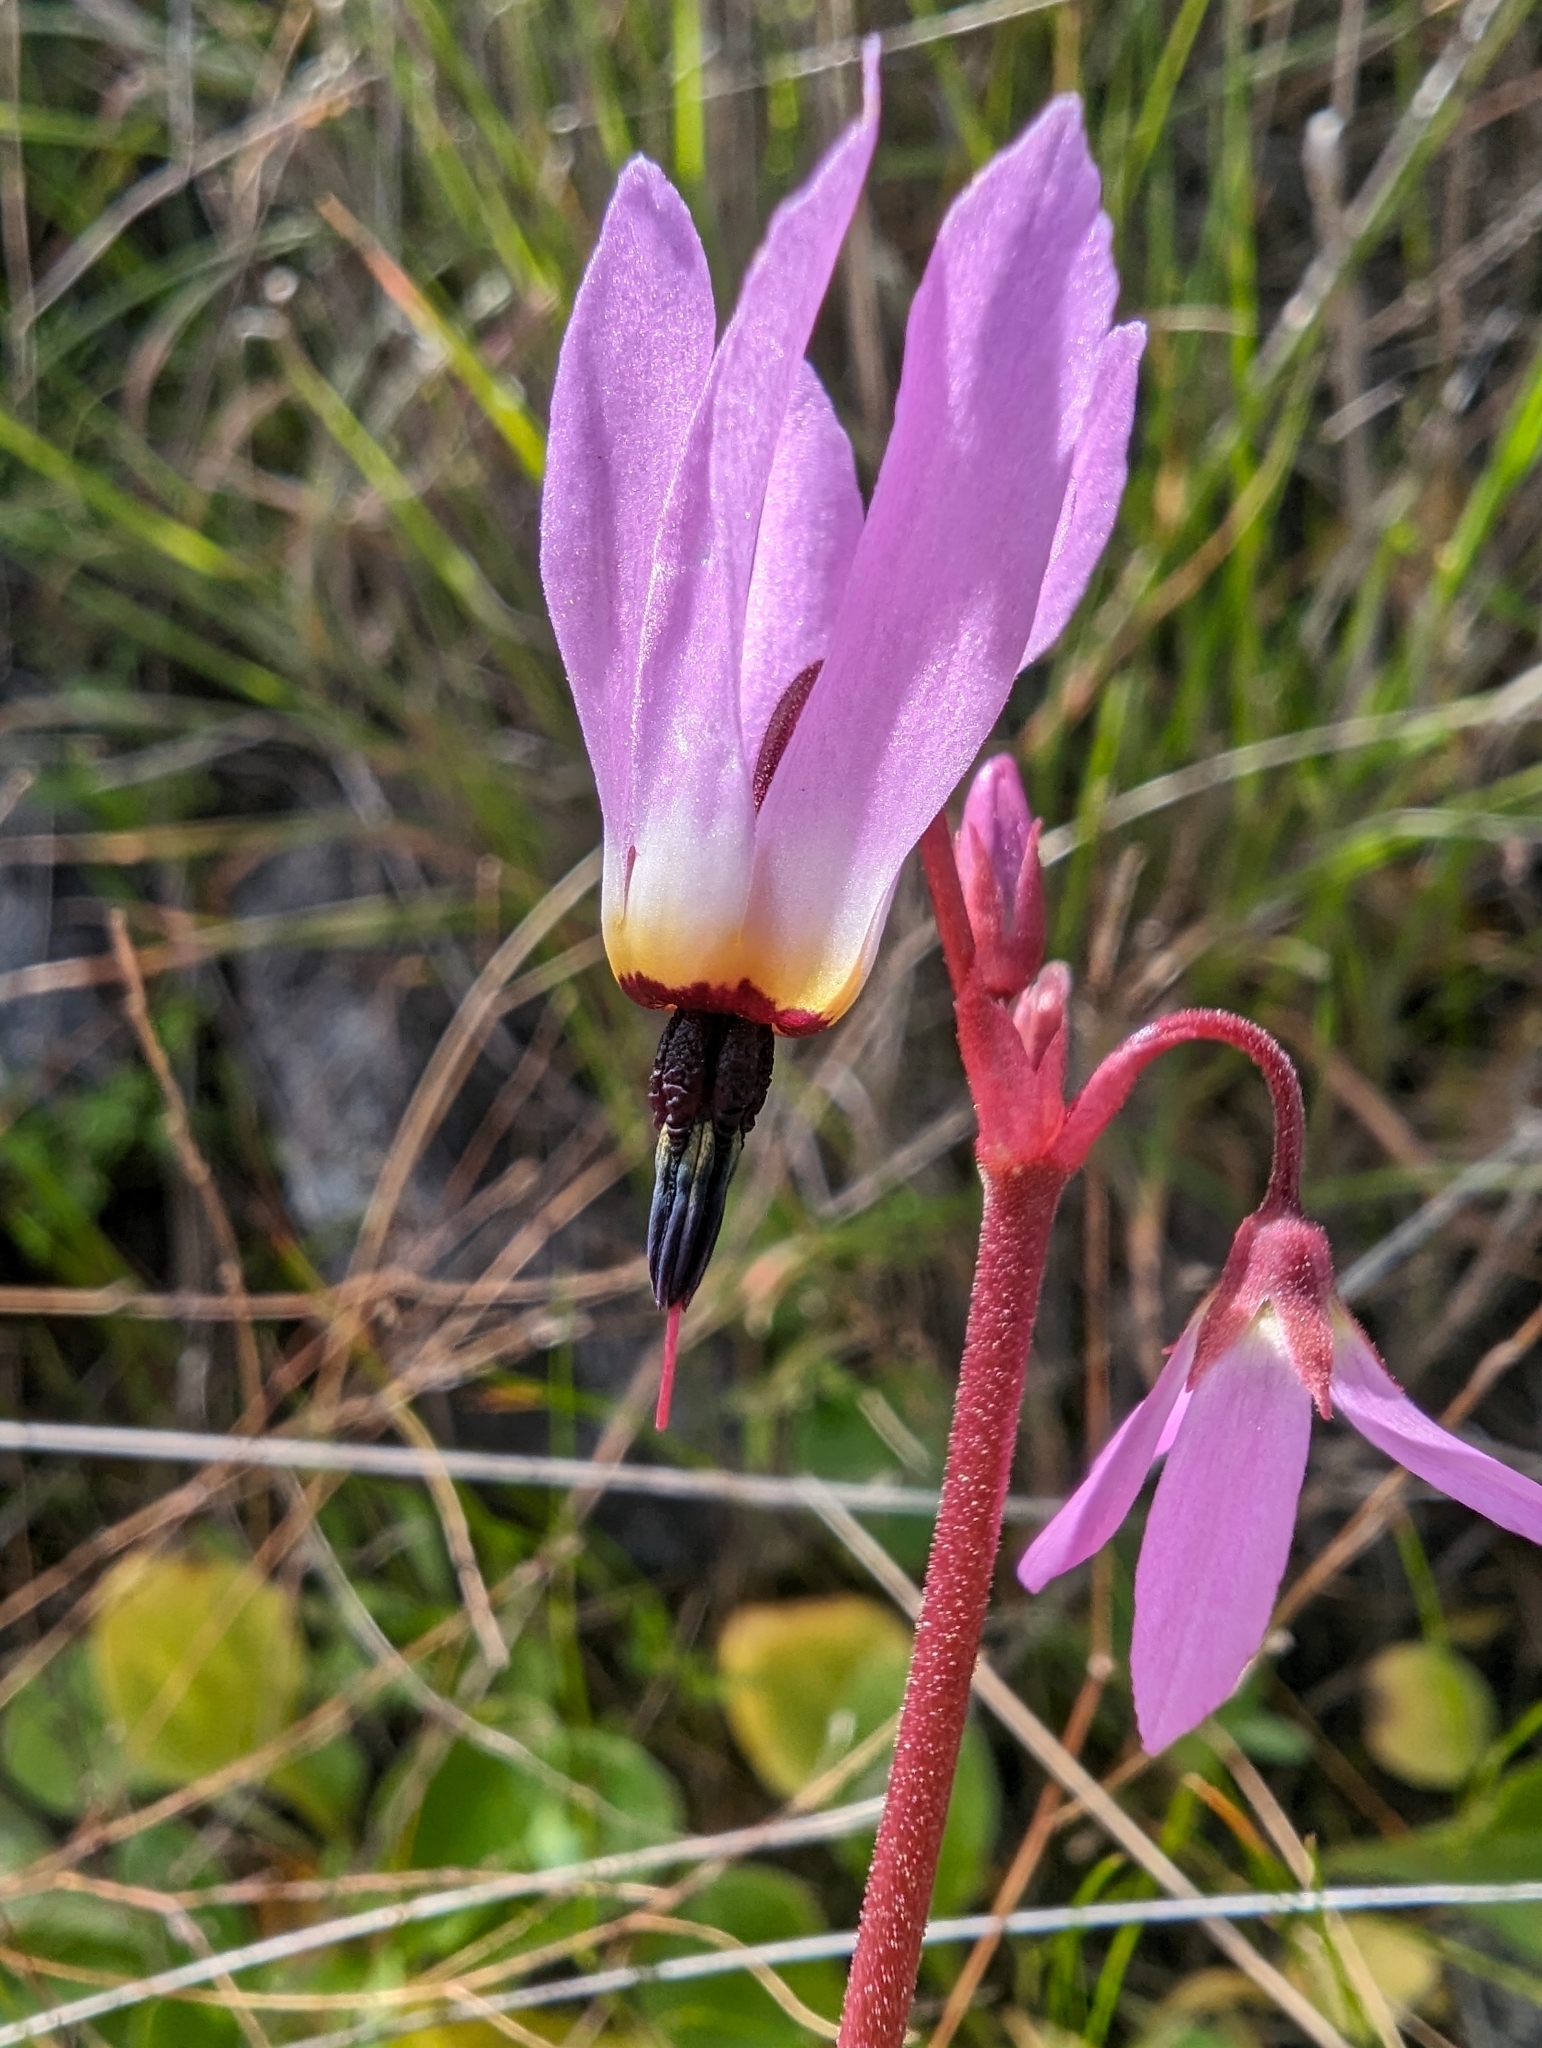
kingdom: Plantae
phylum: Tracheophyta
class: Magnoliopsida
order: Ericales
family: Primulaceae
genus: Dodecatheon
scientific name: Dodecatheon hendersonii
